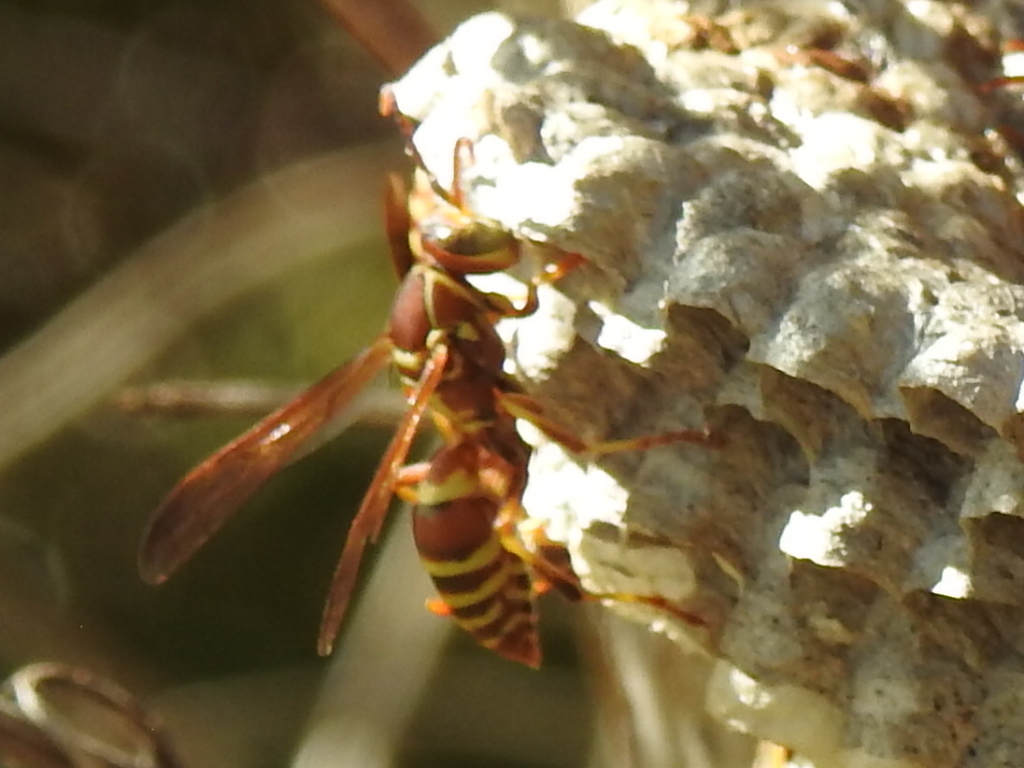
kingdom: Animalia
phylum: Arthropoda
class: Insecta
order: Hymenoptera
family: Eumenidae
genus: Polistes
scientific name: Polistes dorsalis
